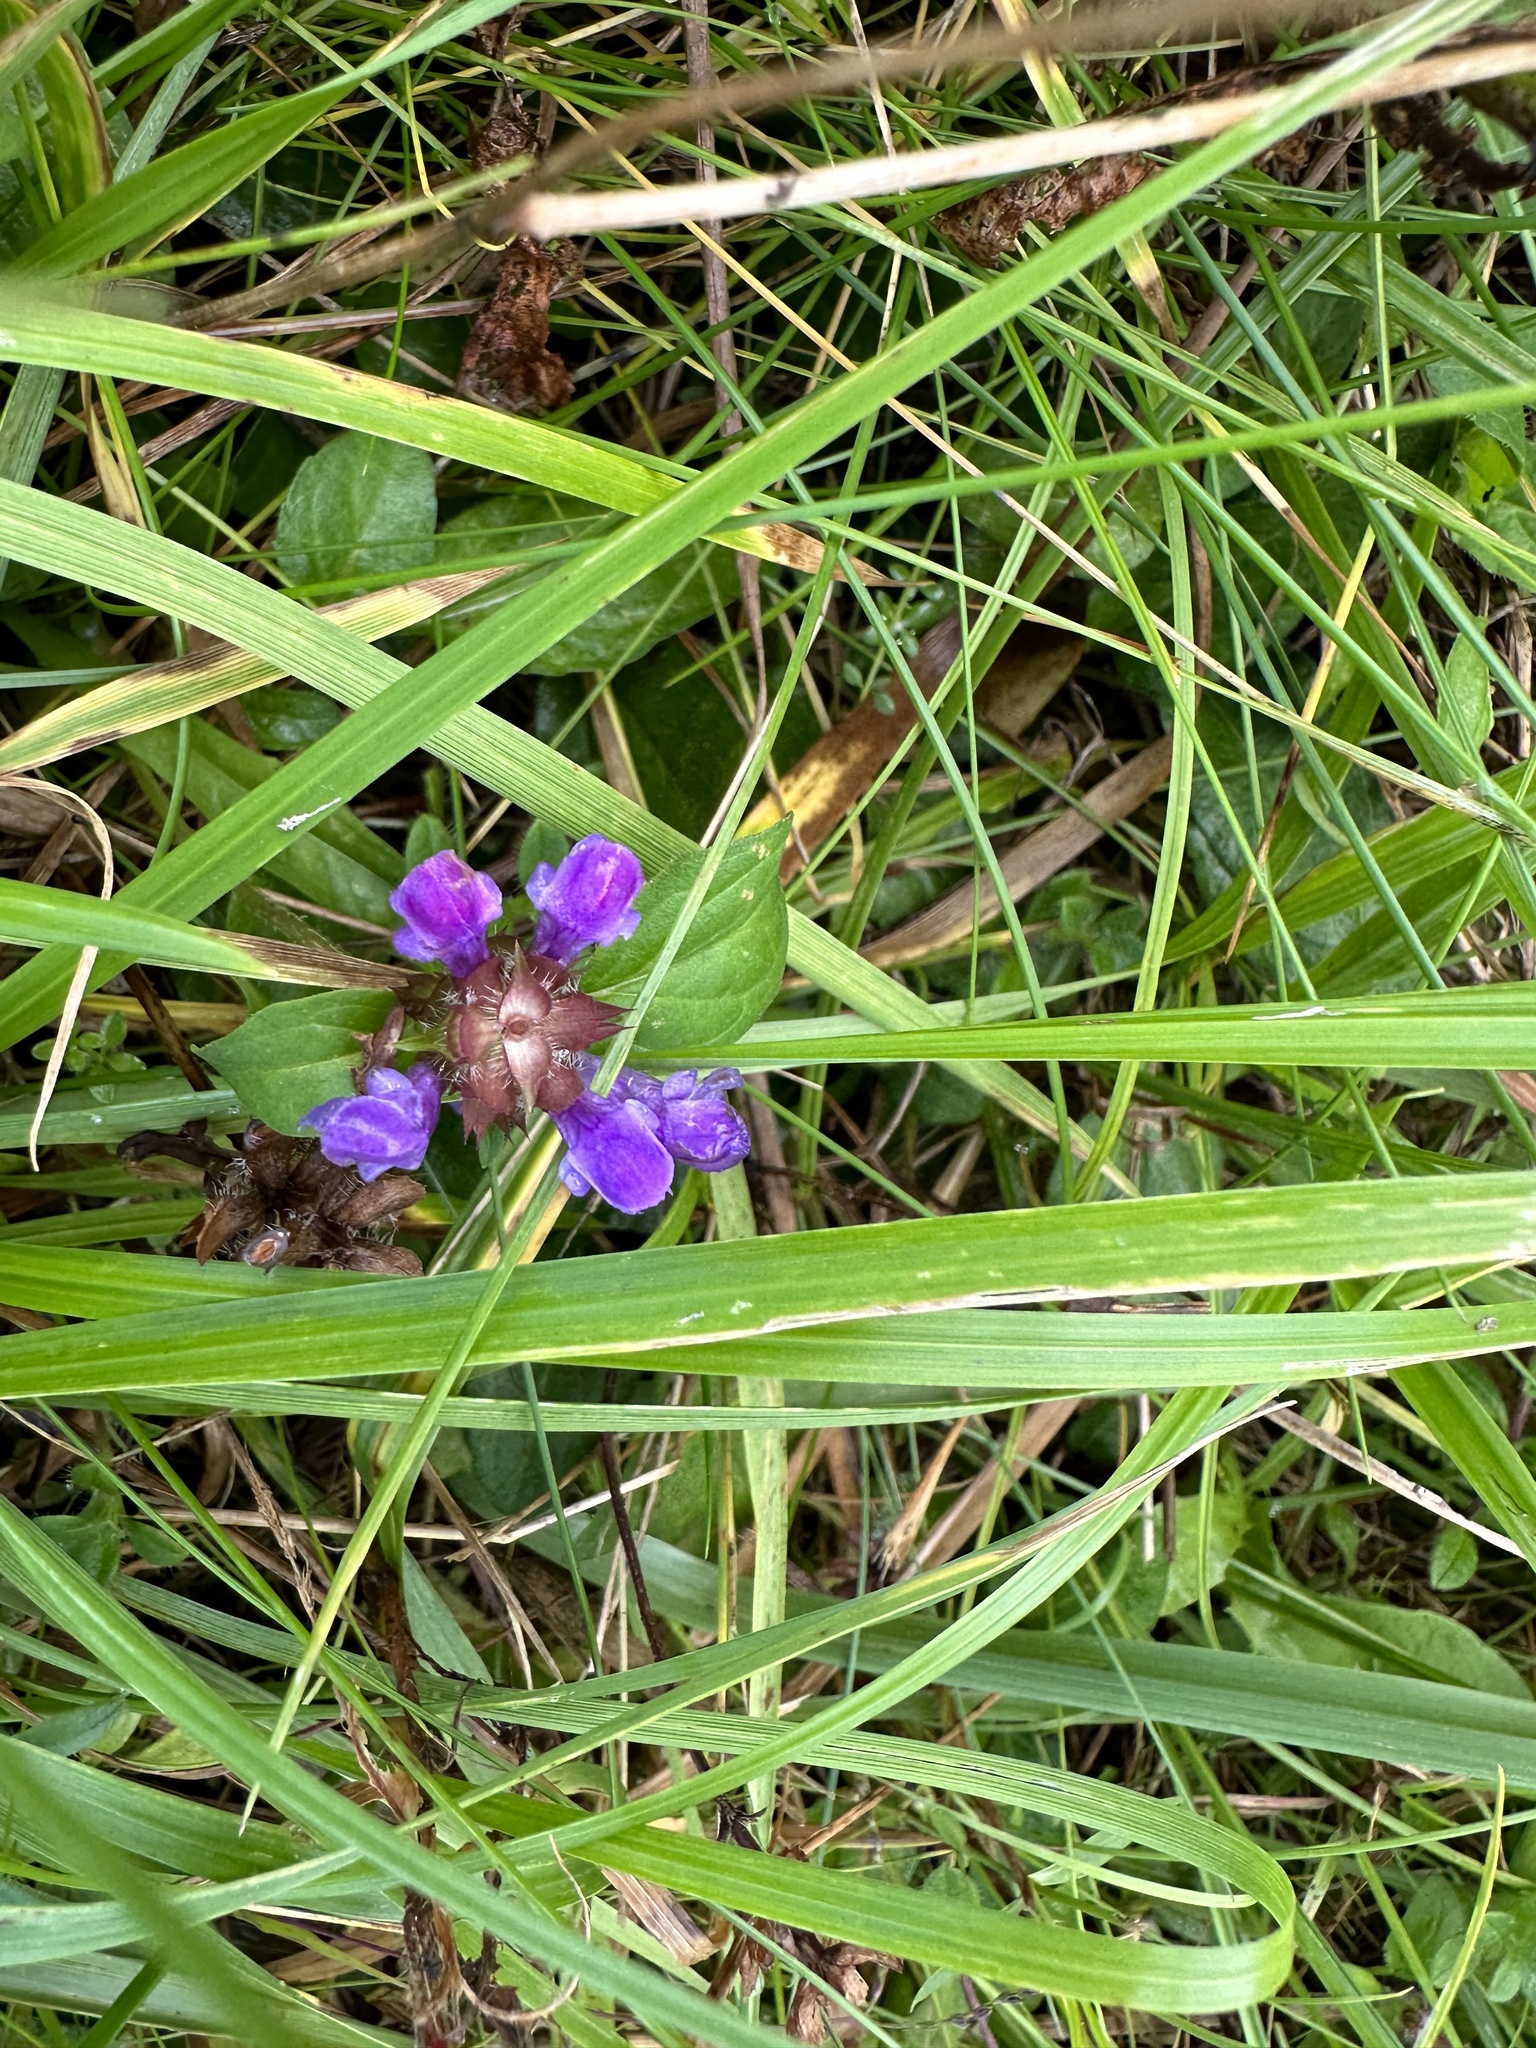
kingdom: Plantae
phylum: Tracheophyta
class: Magnoliopsida
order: Lamiales
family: Lamiaceae
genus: Prunella
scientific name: Prunella vulgaris
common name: Heal-all
